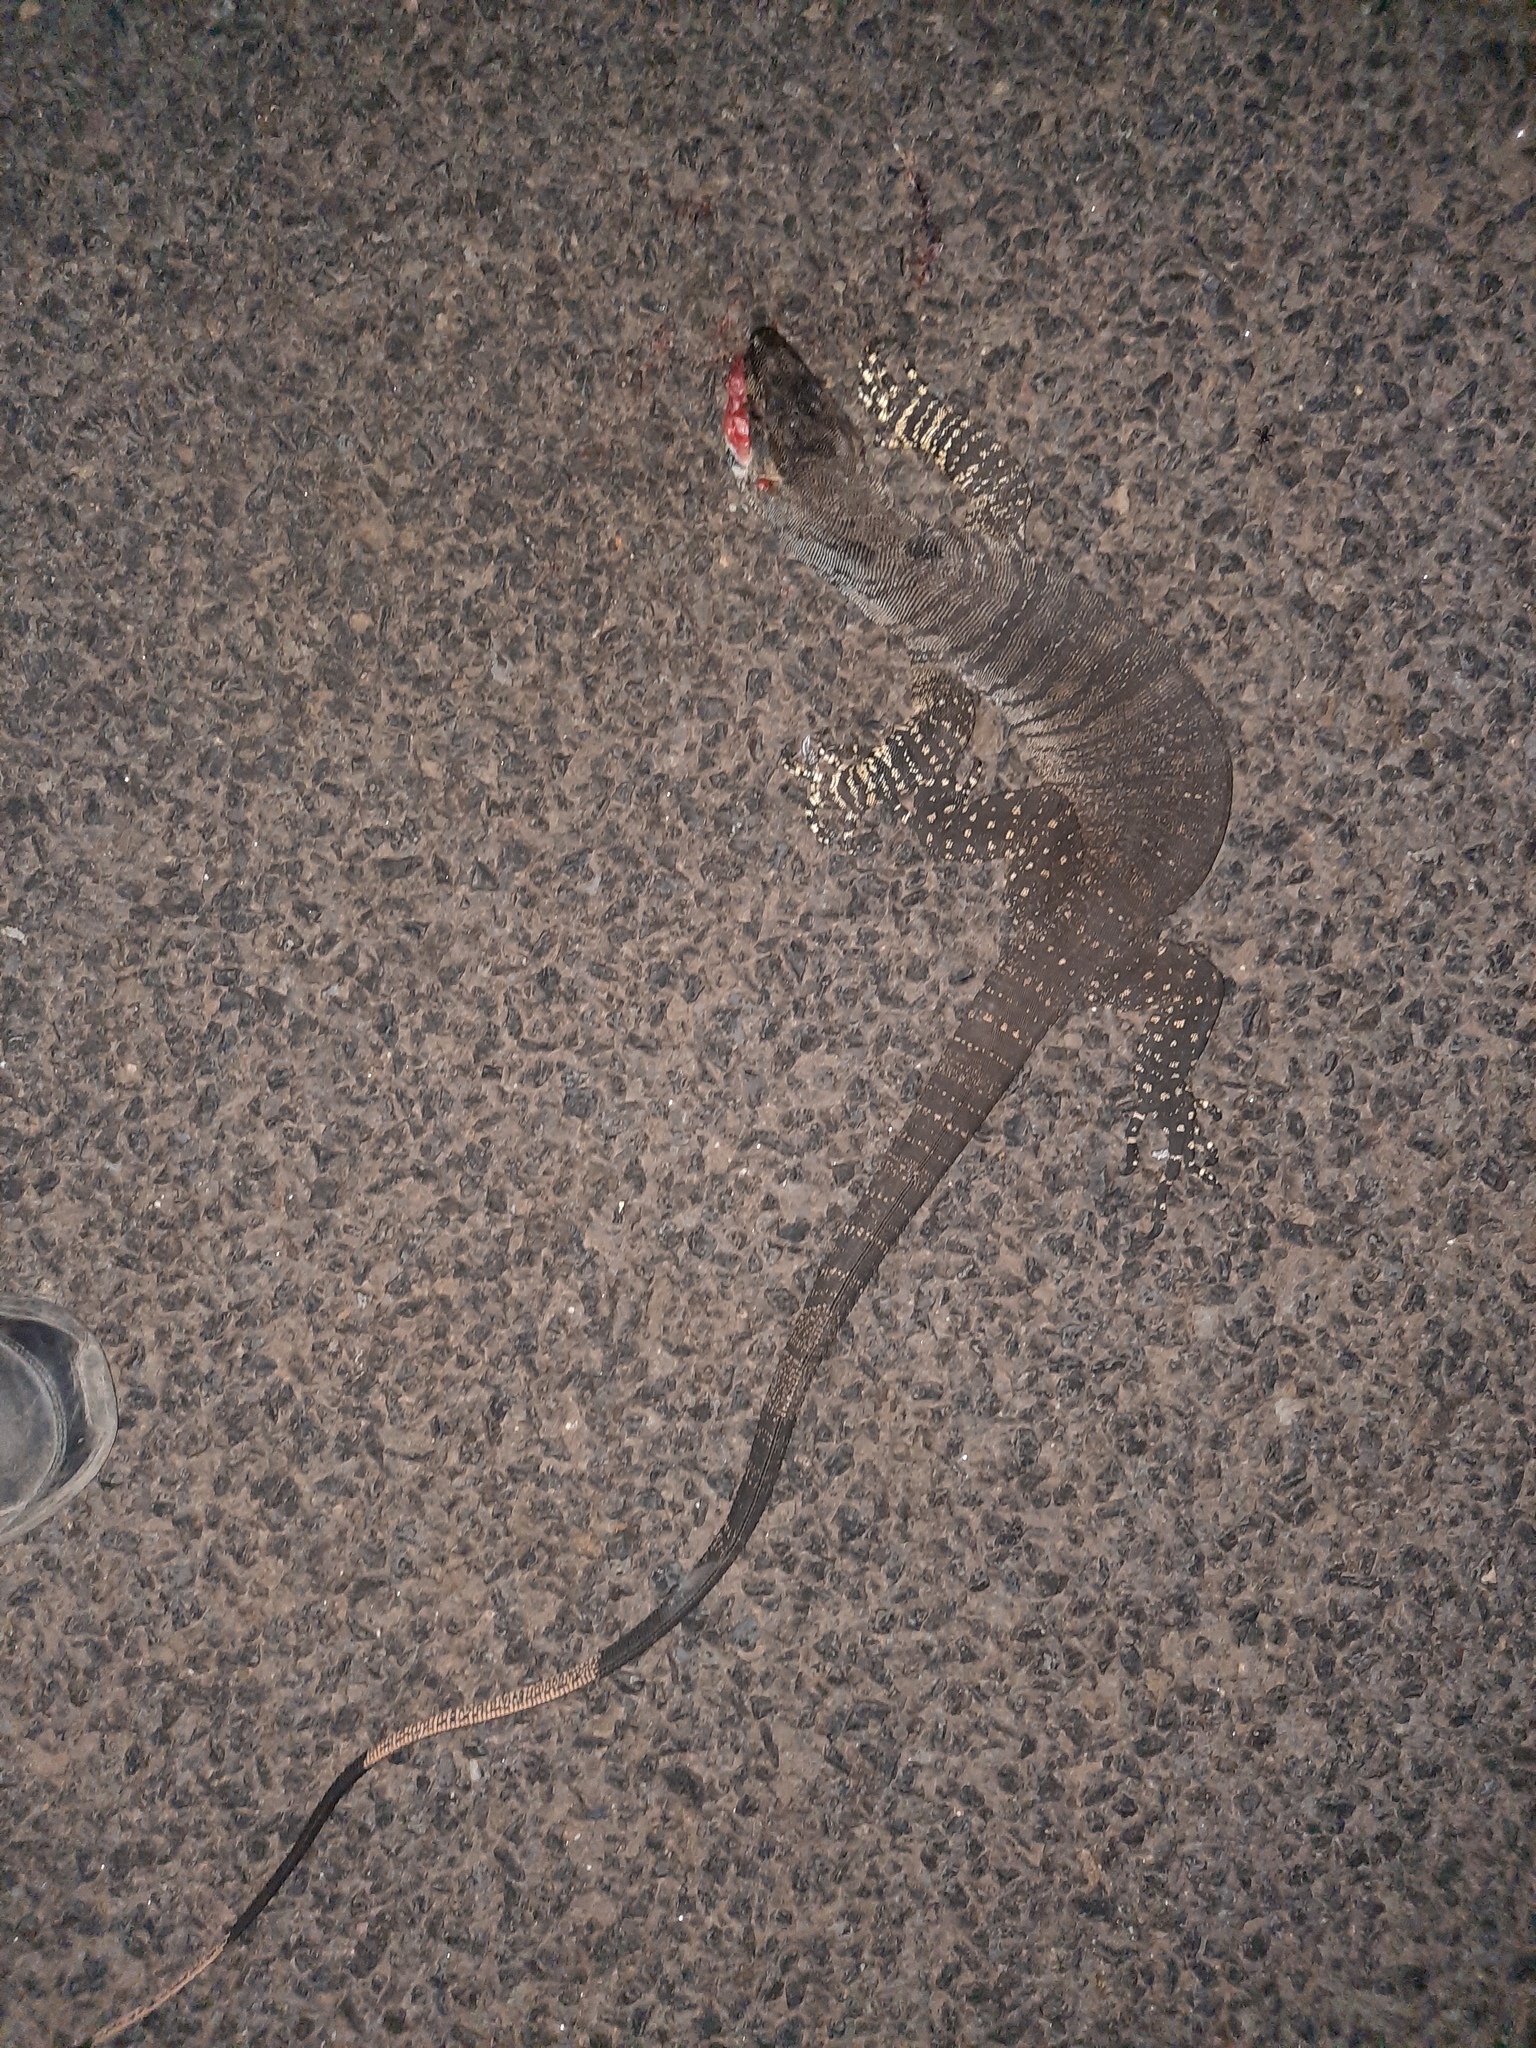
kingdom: Animalia
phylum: Chordata
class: Squamata
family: Varanidae
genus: Varanus
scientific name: Varanus varius
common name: Lace monitor
